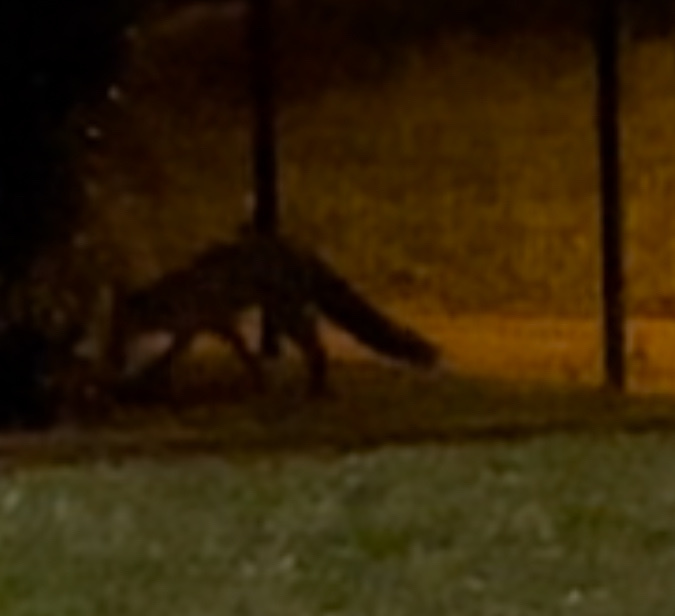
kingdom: Animalia
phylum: Chordata
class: Mammalia
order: Carnivora
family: Canidae
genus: Vulpes
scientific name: Vulpes vulpes
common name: Red fox
